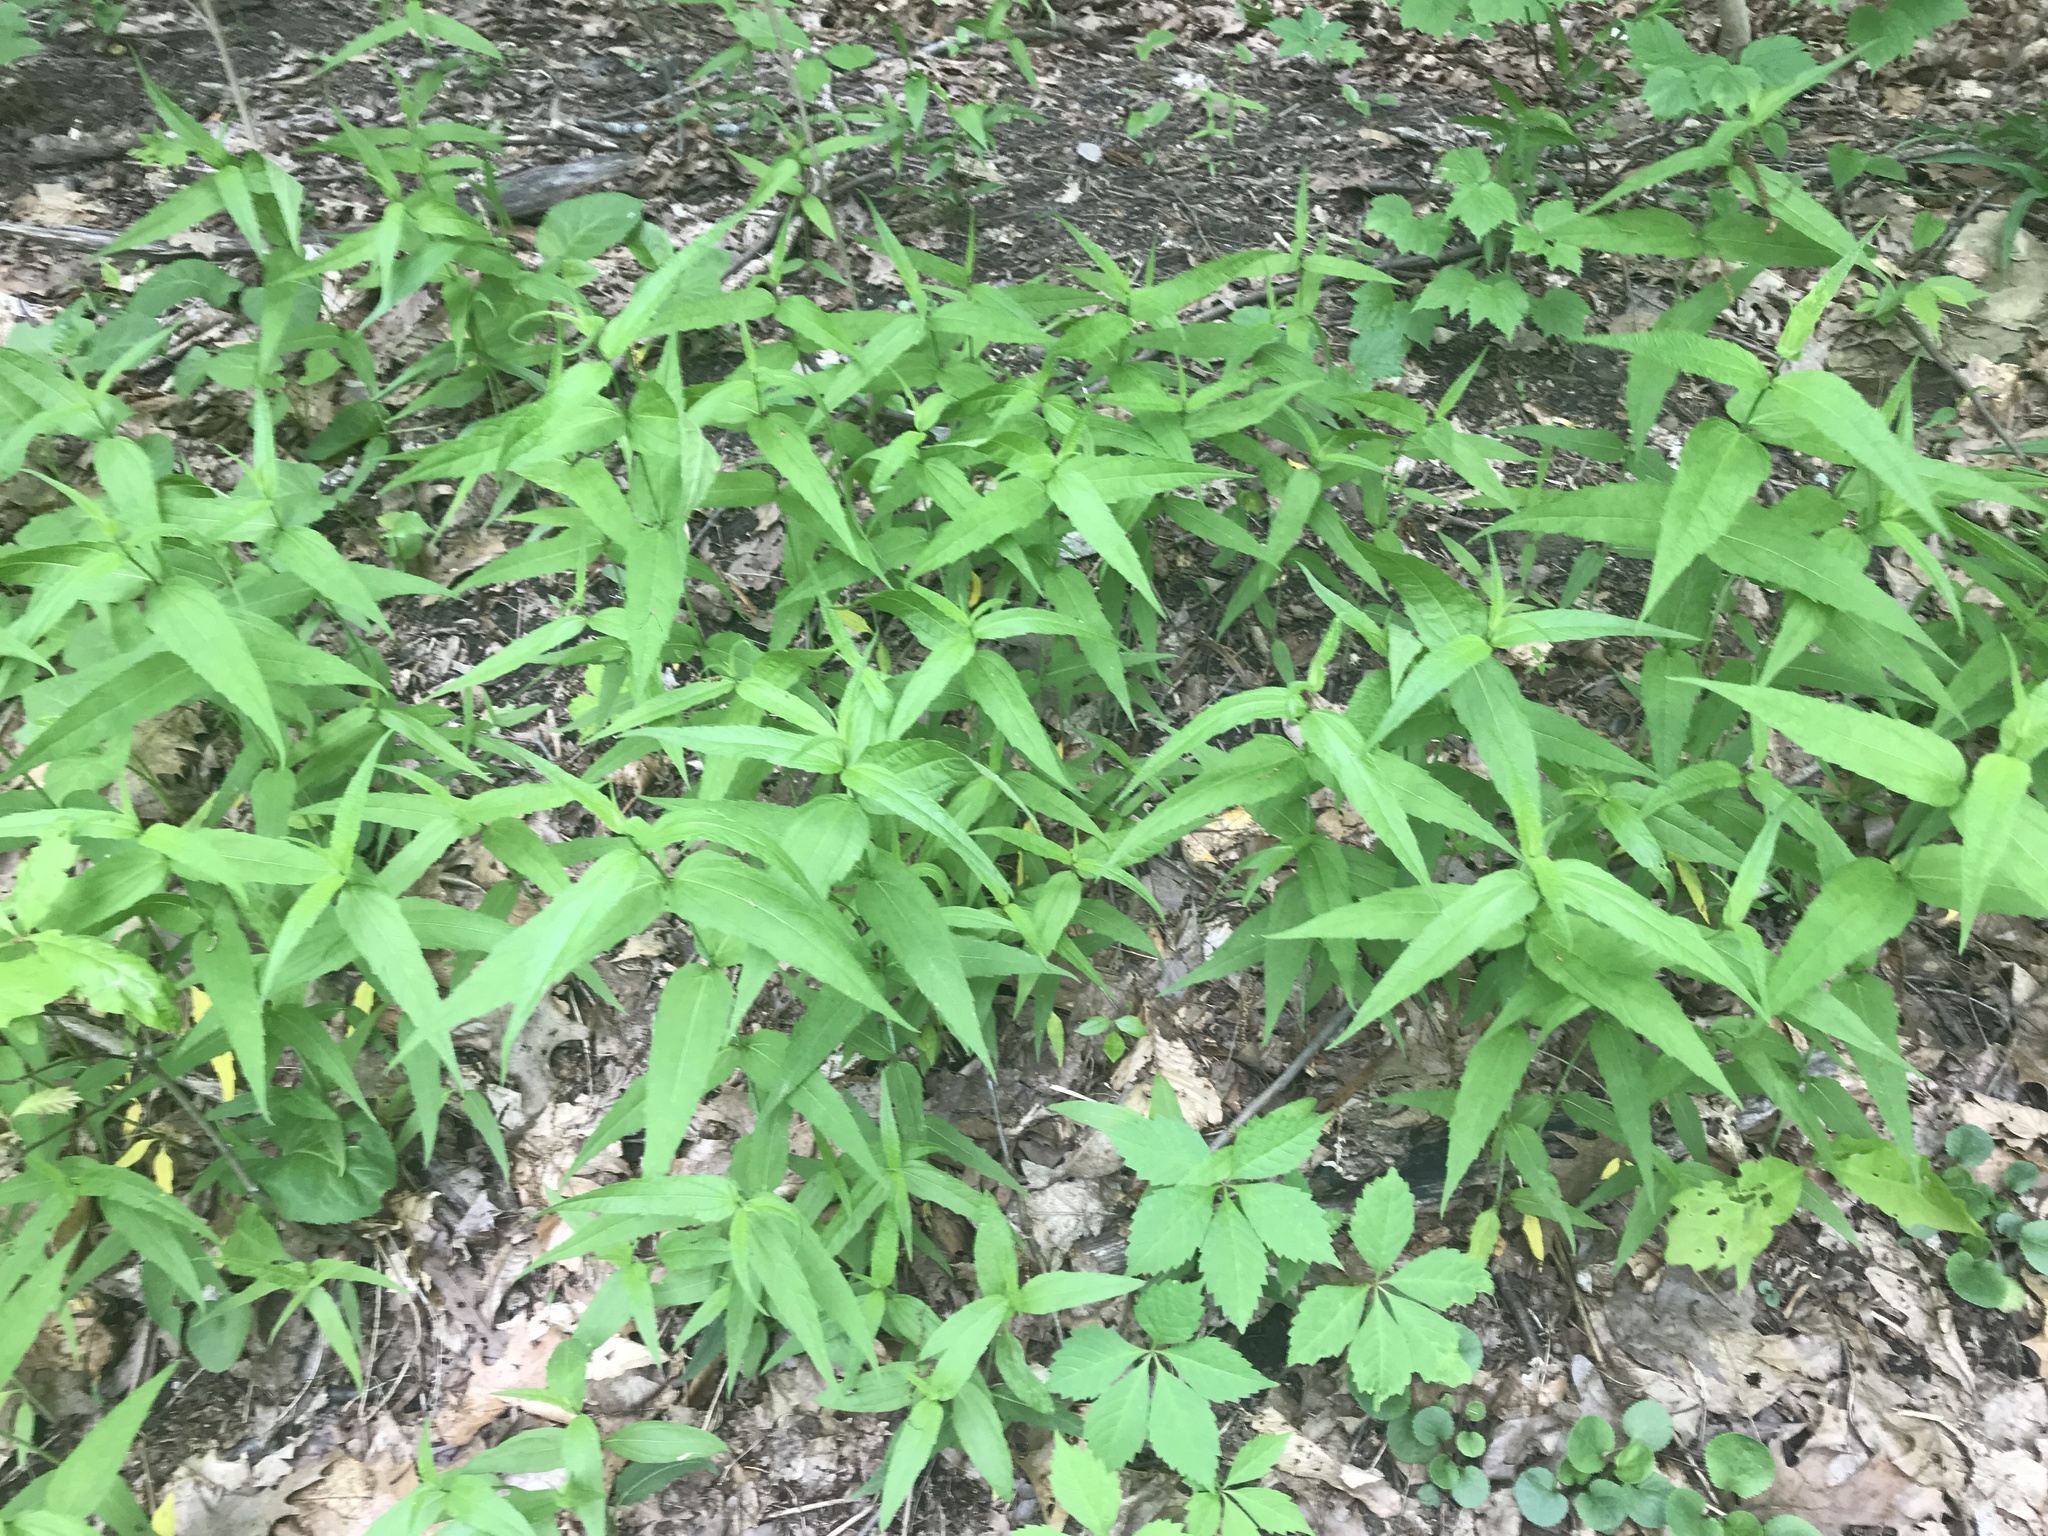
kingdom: Plantae
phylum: Tracheophyta
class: Magnoliopsida
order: Asterales
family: Asteraceae
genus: Helianthus
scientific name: Helianthus divaricatus
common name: Divergent sunflower
